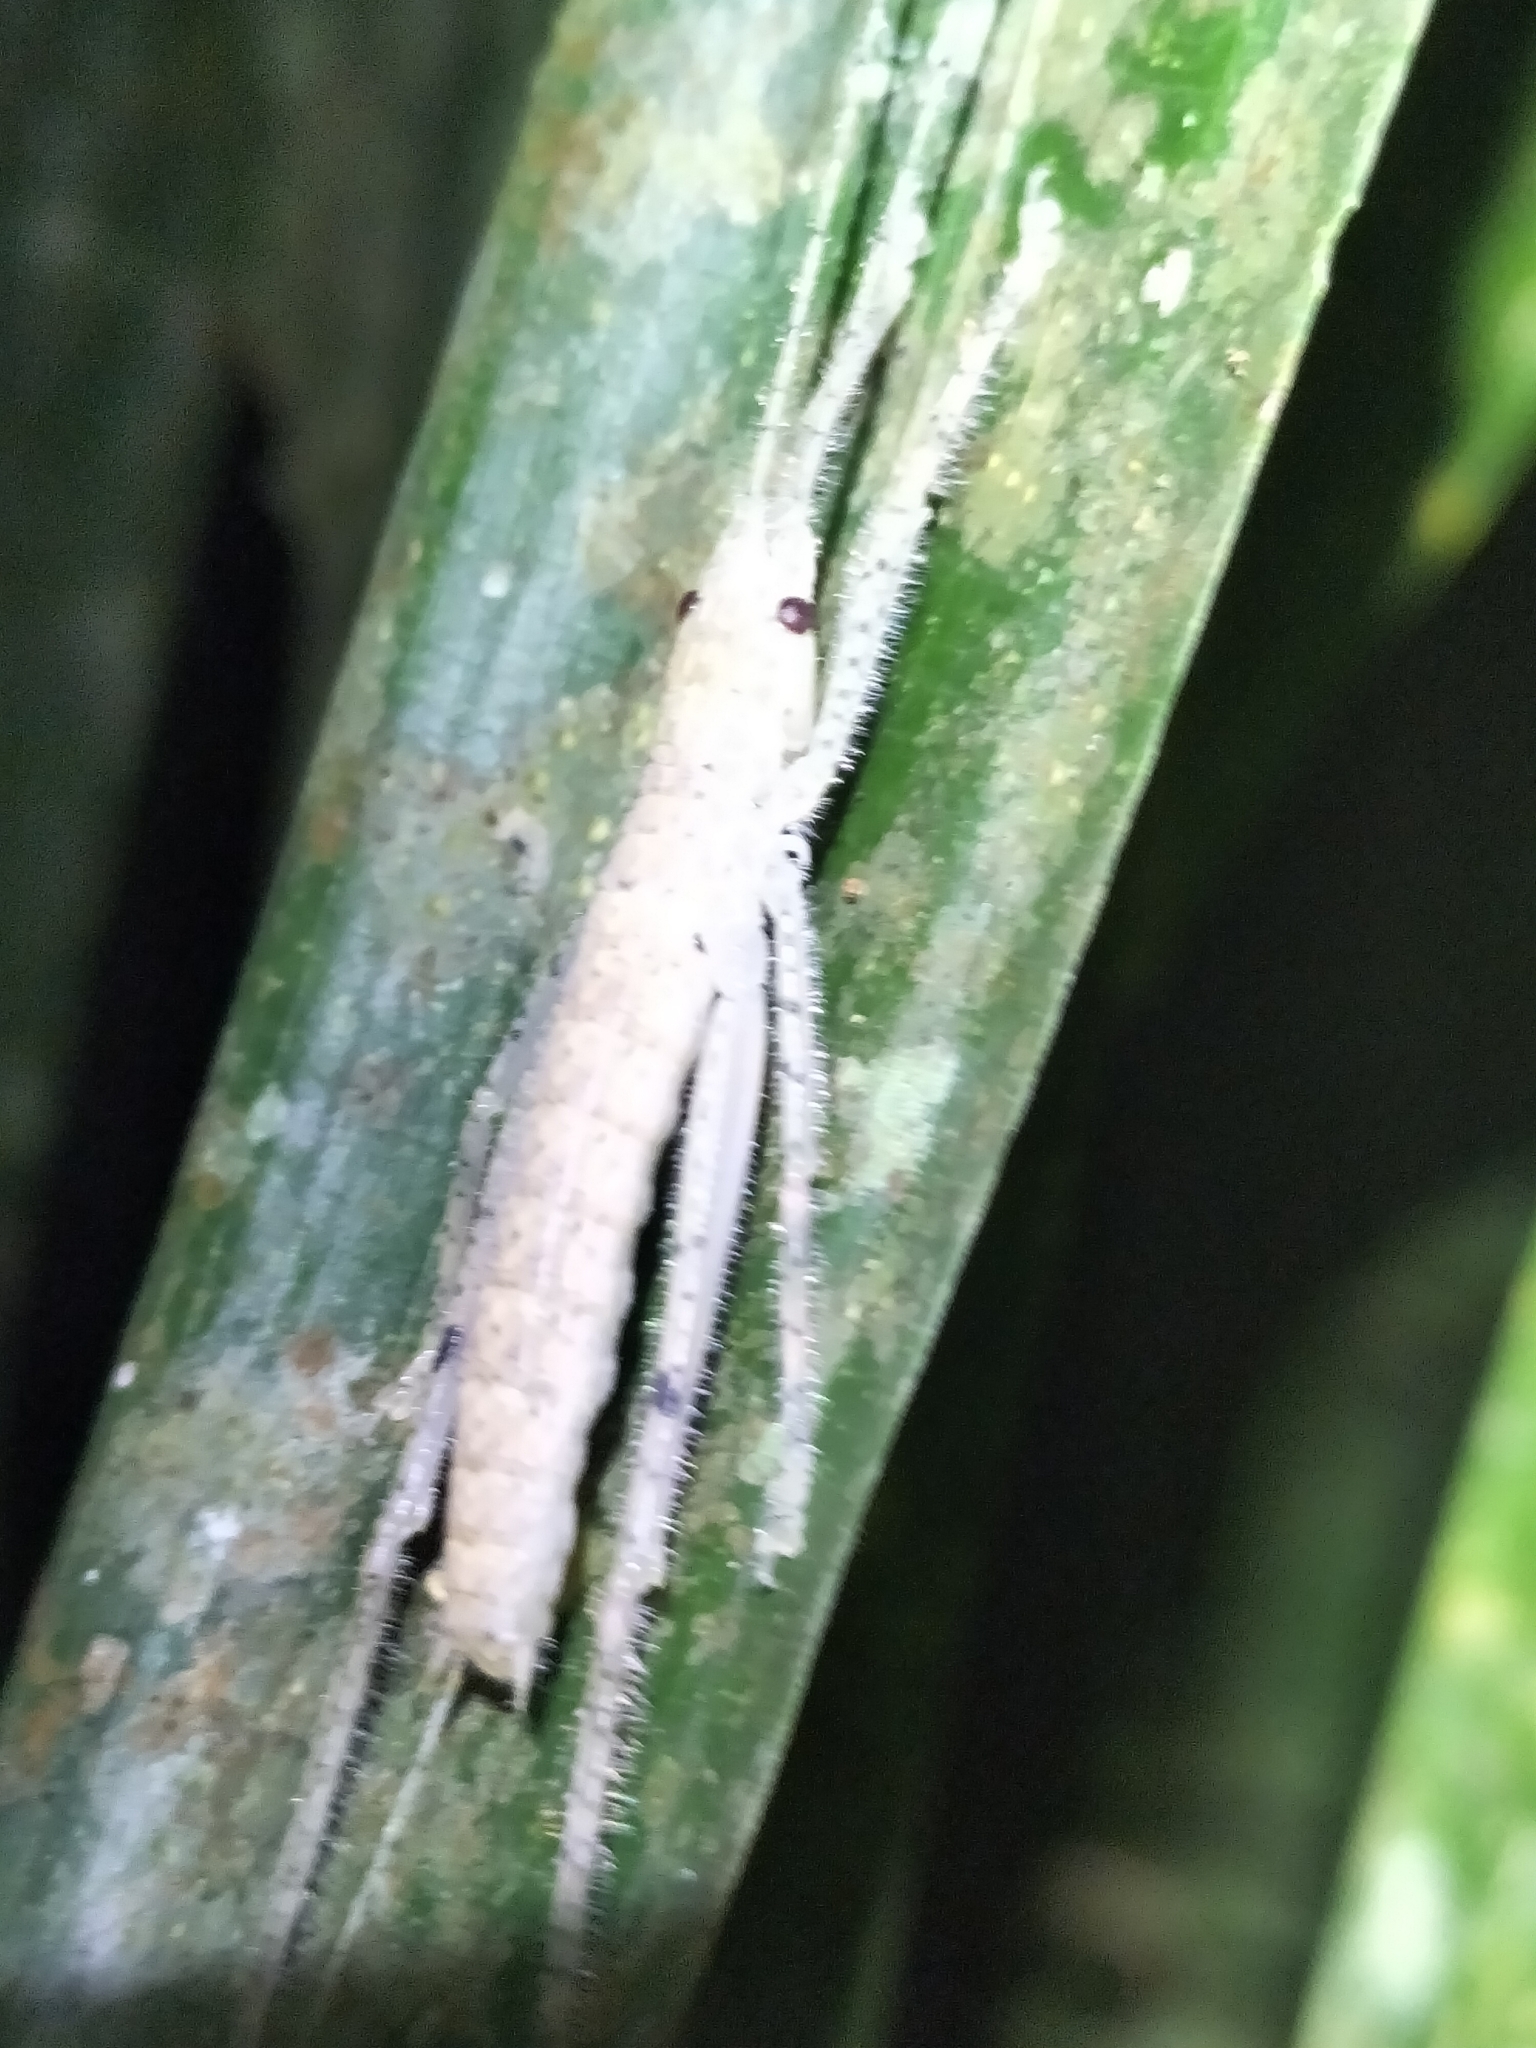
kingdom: Animalia
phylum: Arthropoda
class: Insecta
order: Orthoptera
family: Tettigoniidae
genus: Segestidea
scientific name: Segestidea queenslandica
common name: Queensland palm katydid
